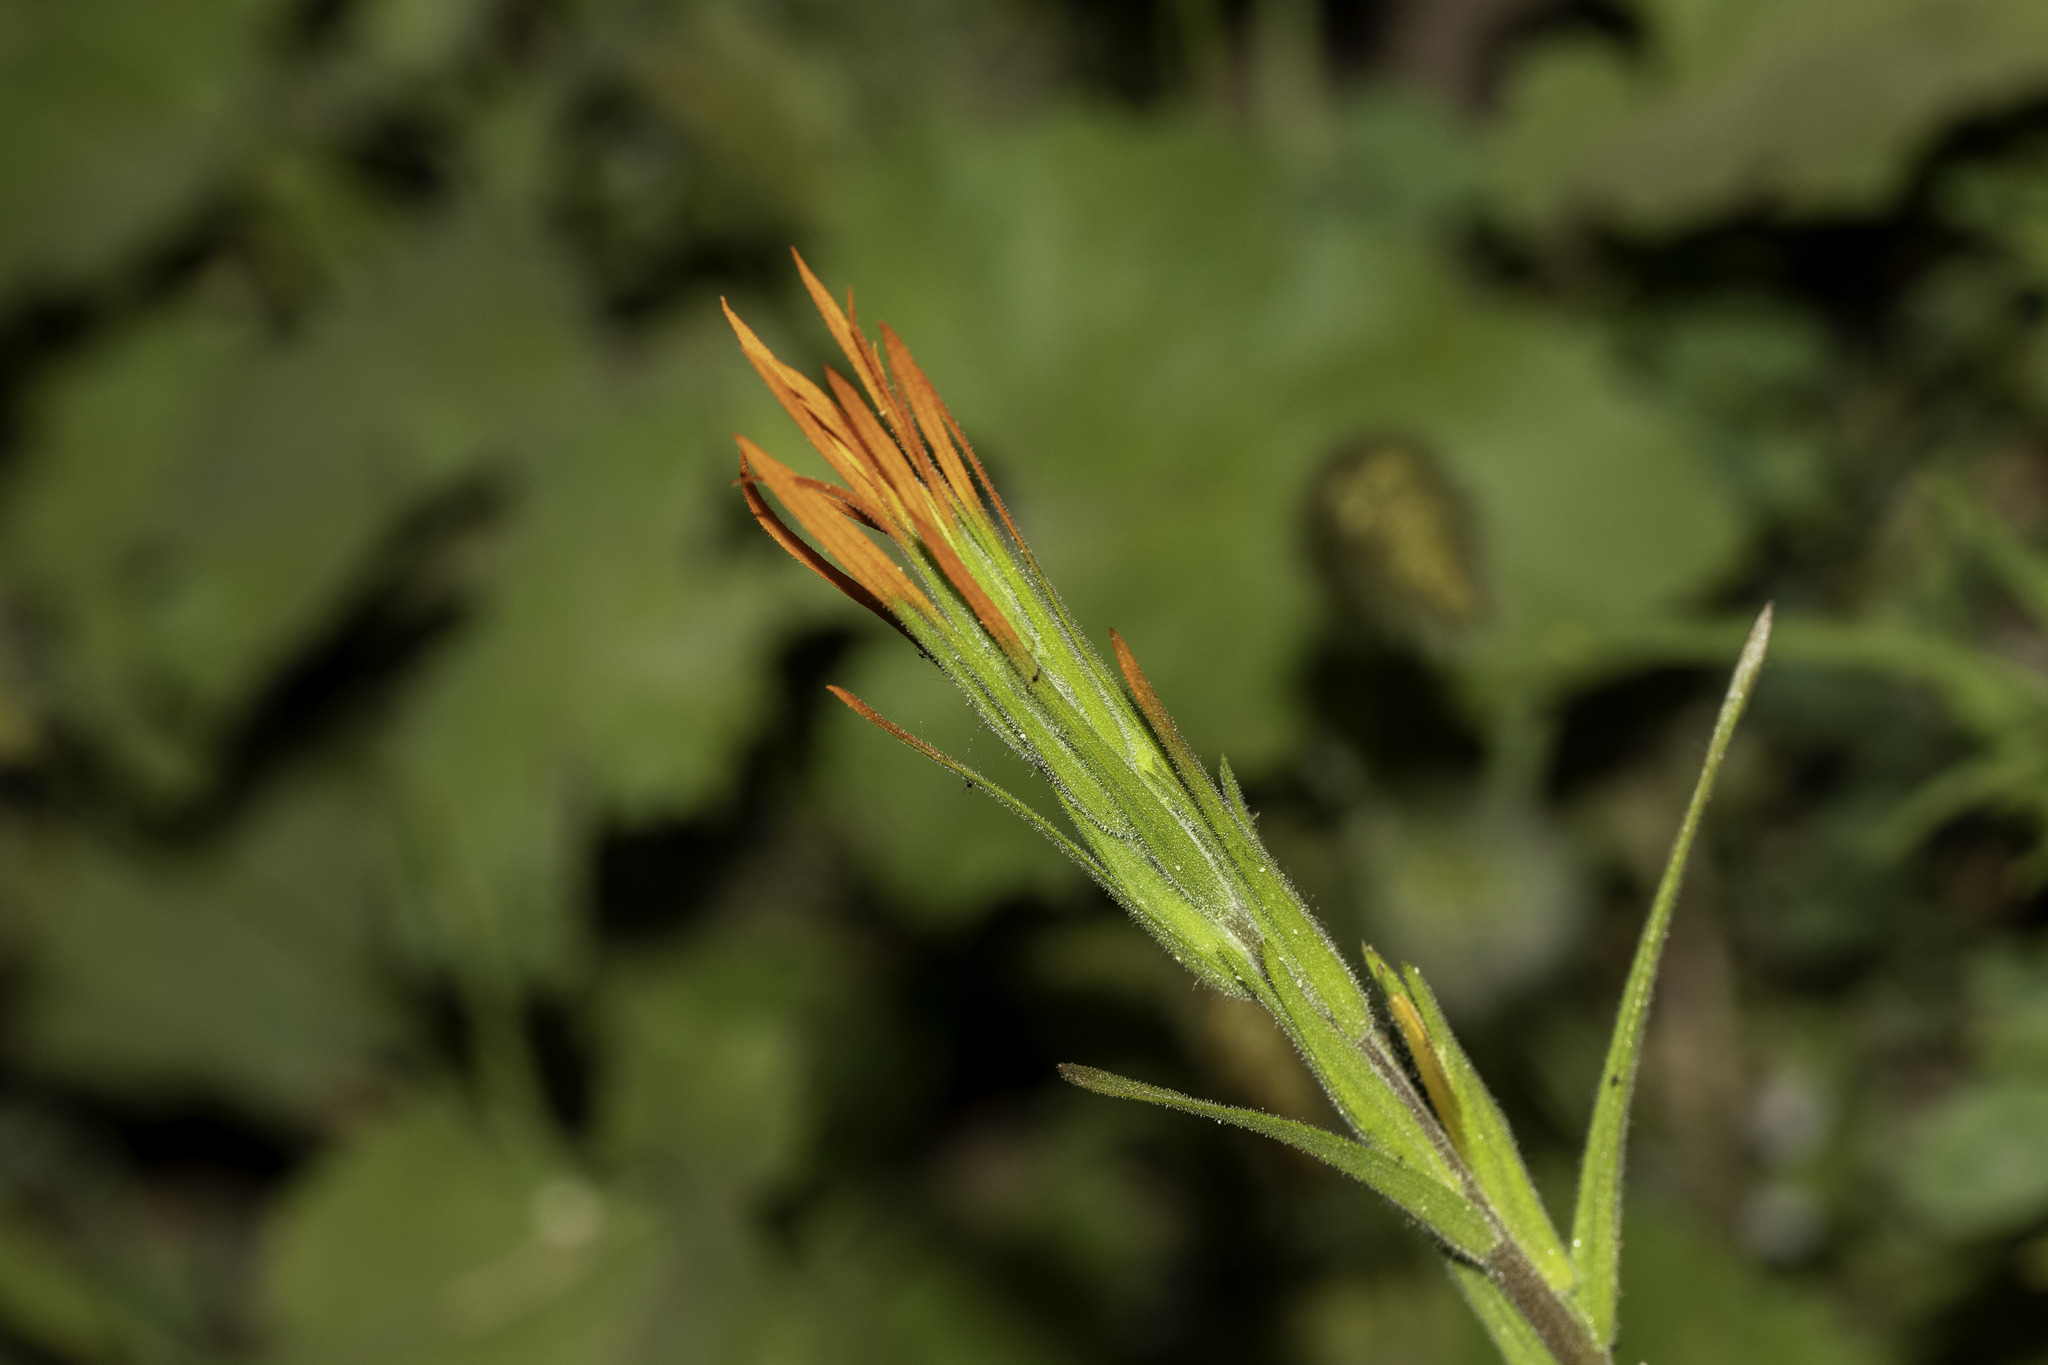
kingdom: Plantae
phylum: Tracheophyta
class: Magnoliopsida
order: Lamiales
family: Orobanchaceae
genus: Castilleja
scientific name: Castilleja minor
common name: Seep paintbrush
